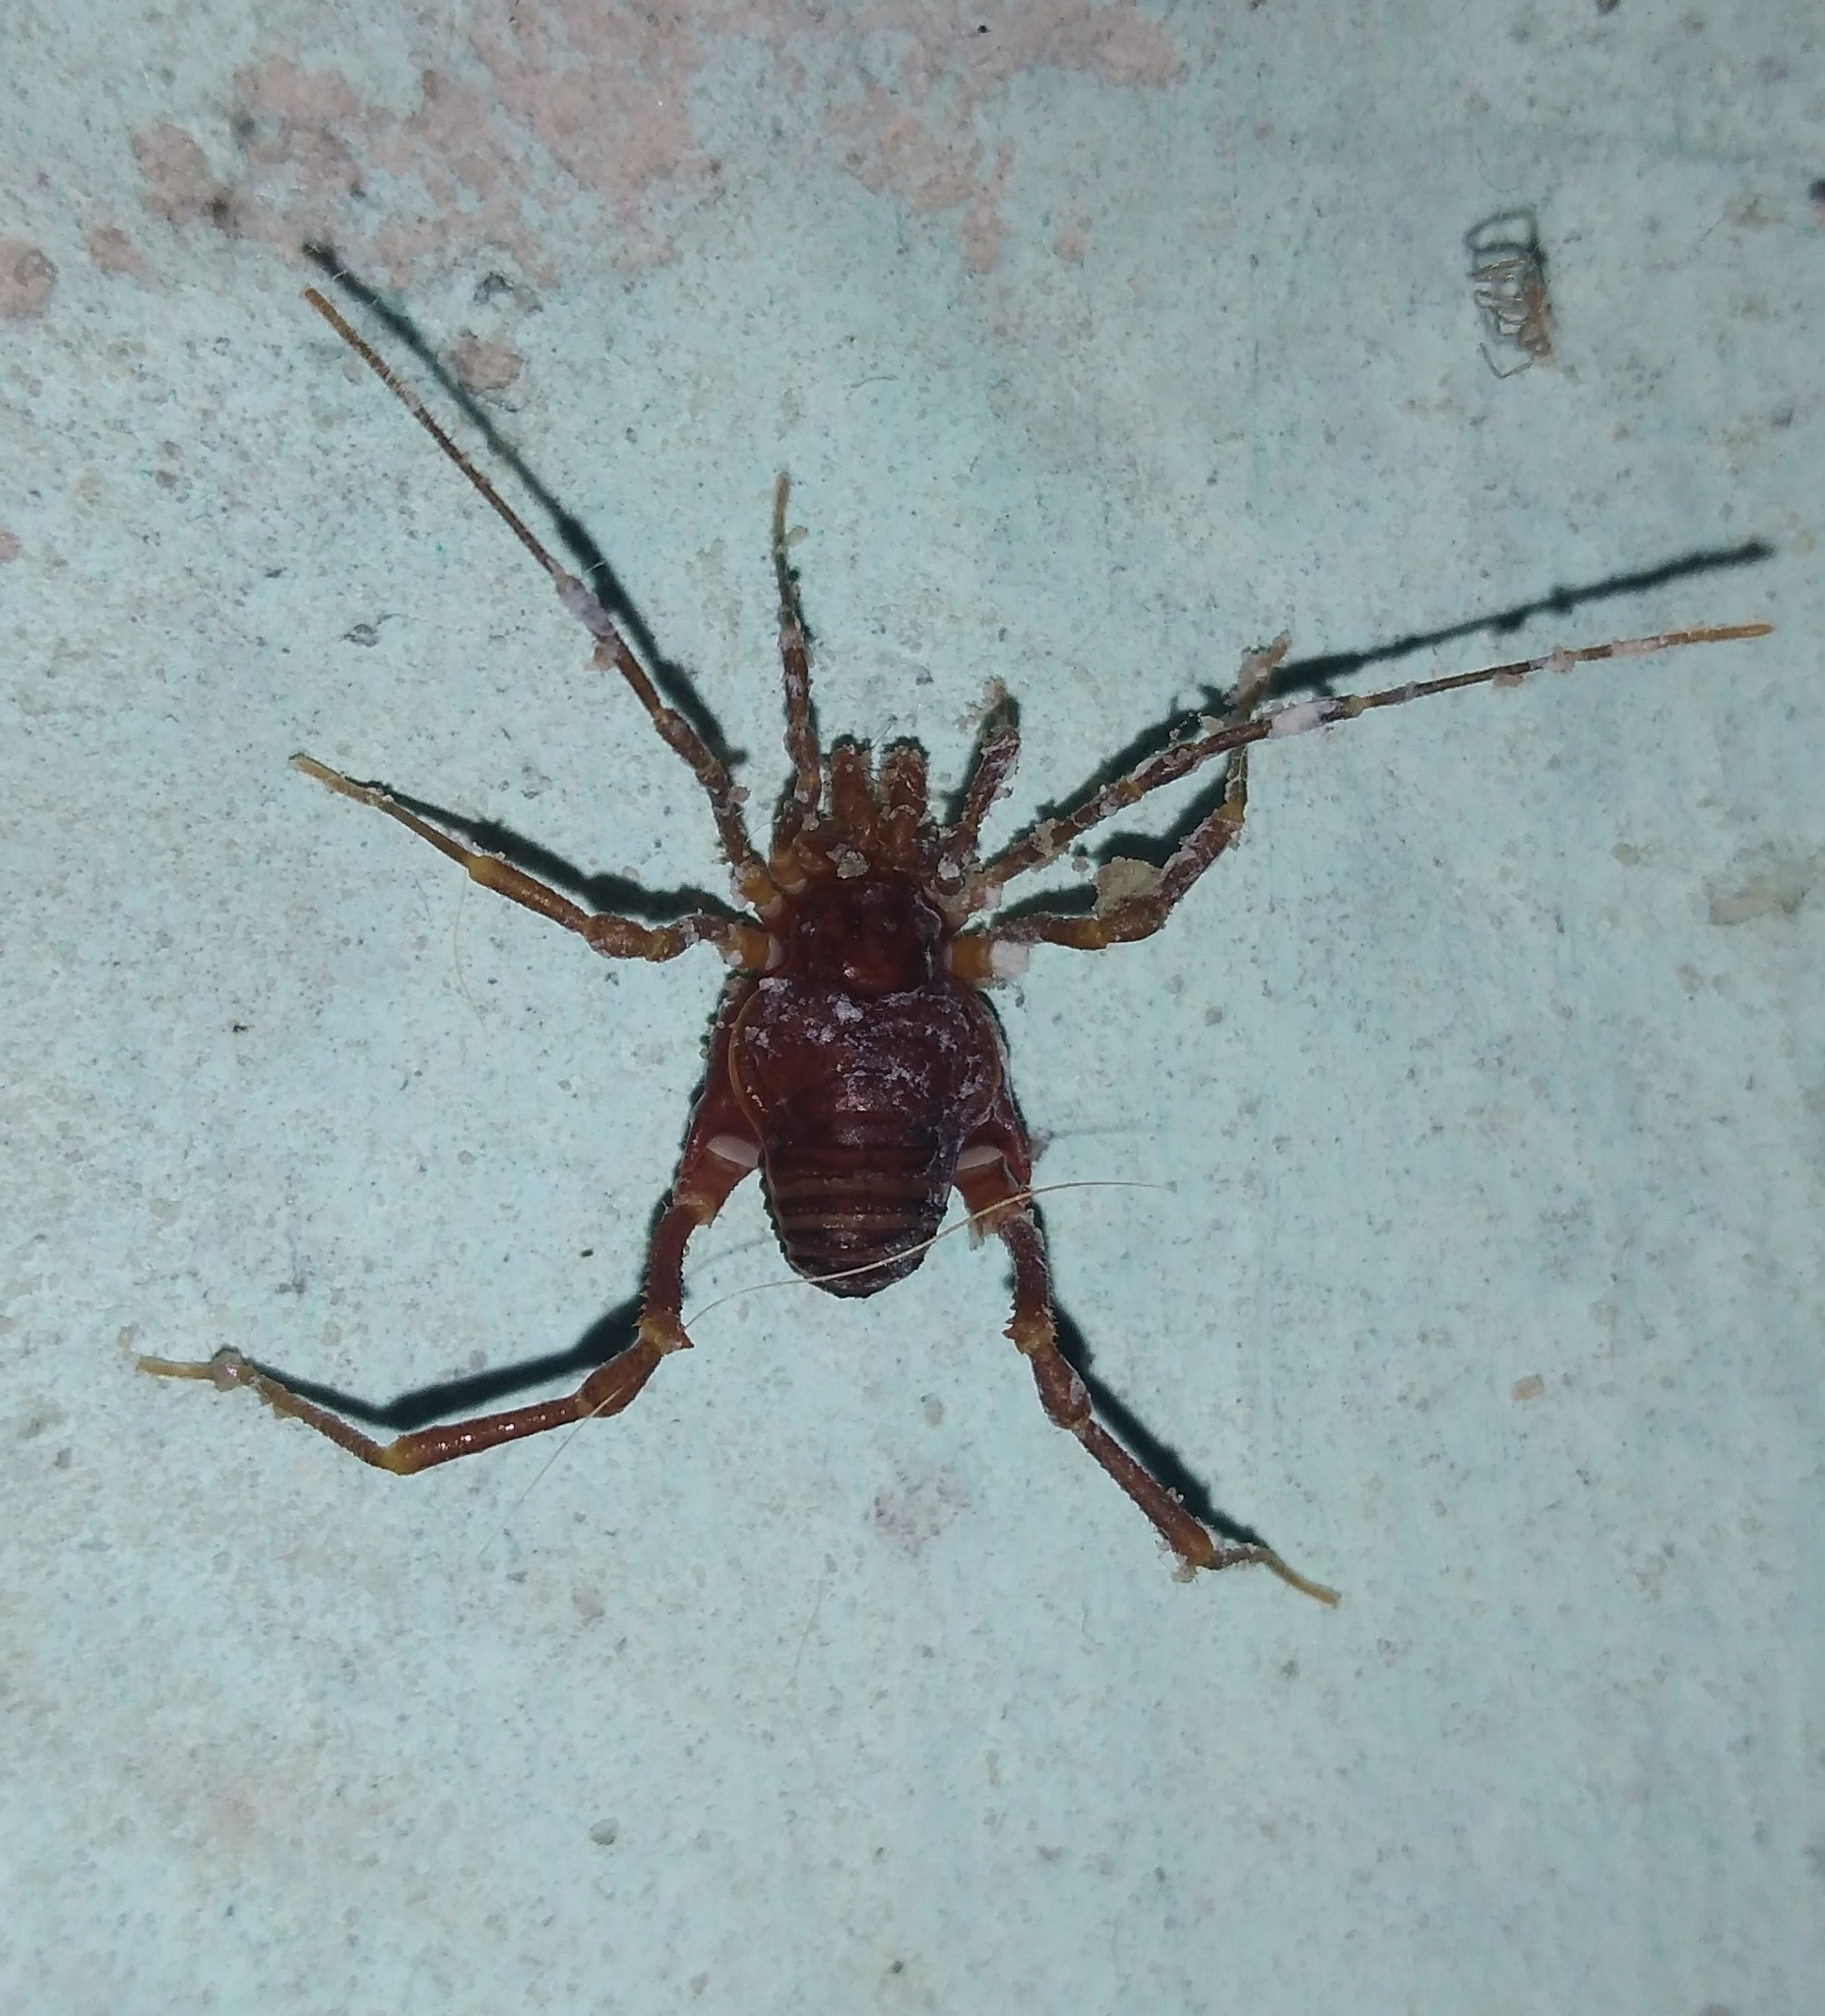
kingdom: Animalia
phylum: Arthropoda
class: Arachnida
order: Opiliones
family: Gonyleptidae
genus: Pachyloides
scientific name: Pachyloides thorellii
